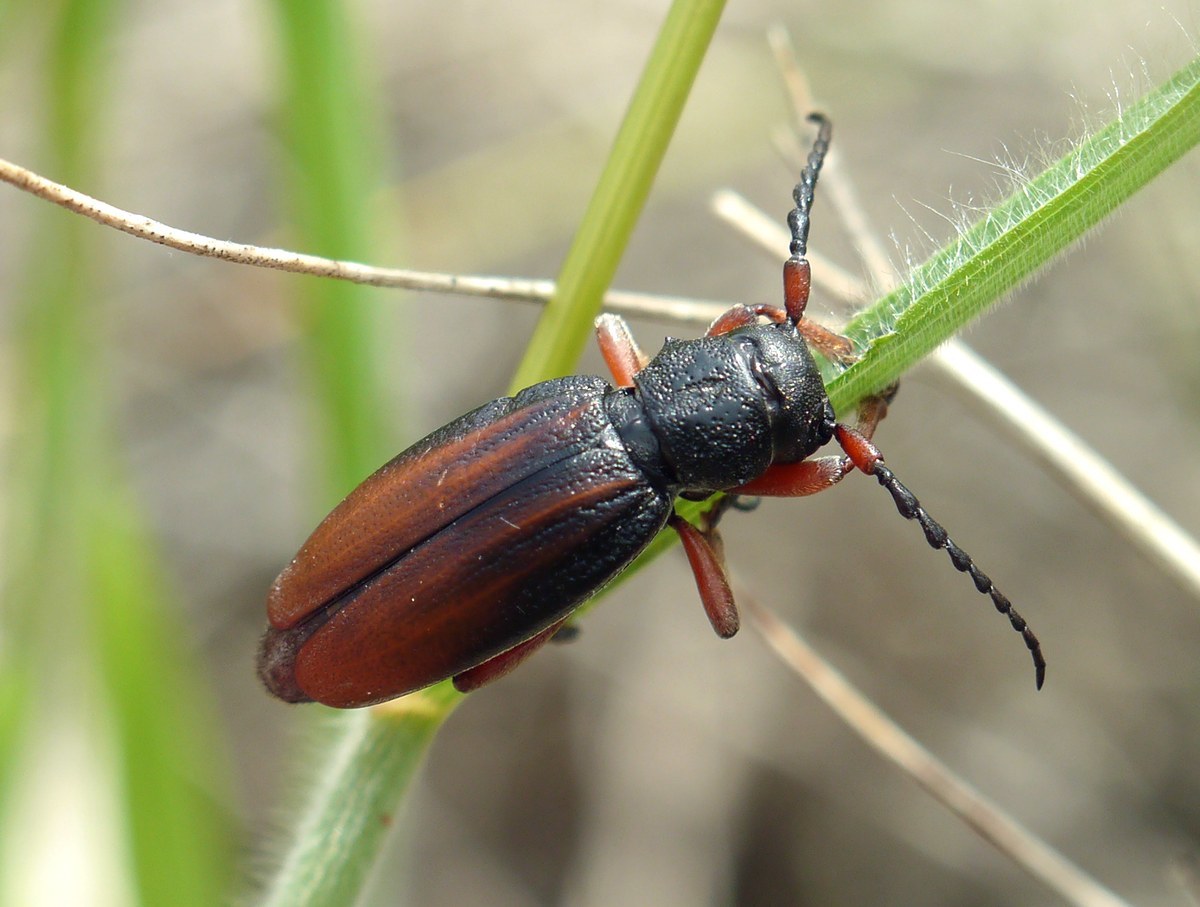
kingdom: Animalia
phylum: Arthropoda
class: Insecta
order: Coleoptera
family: Cerambycidae
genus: Dorcadion
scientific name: Dorcadion fulvum
